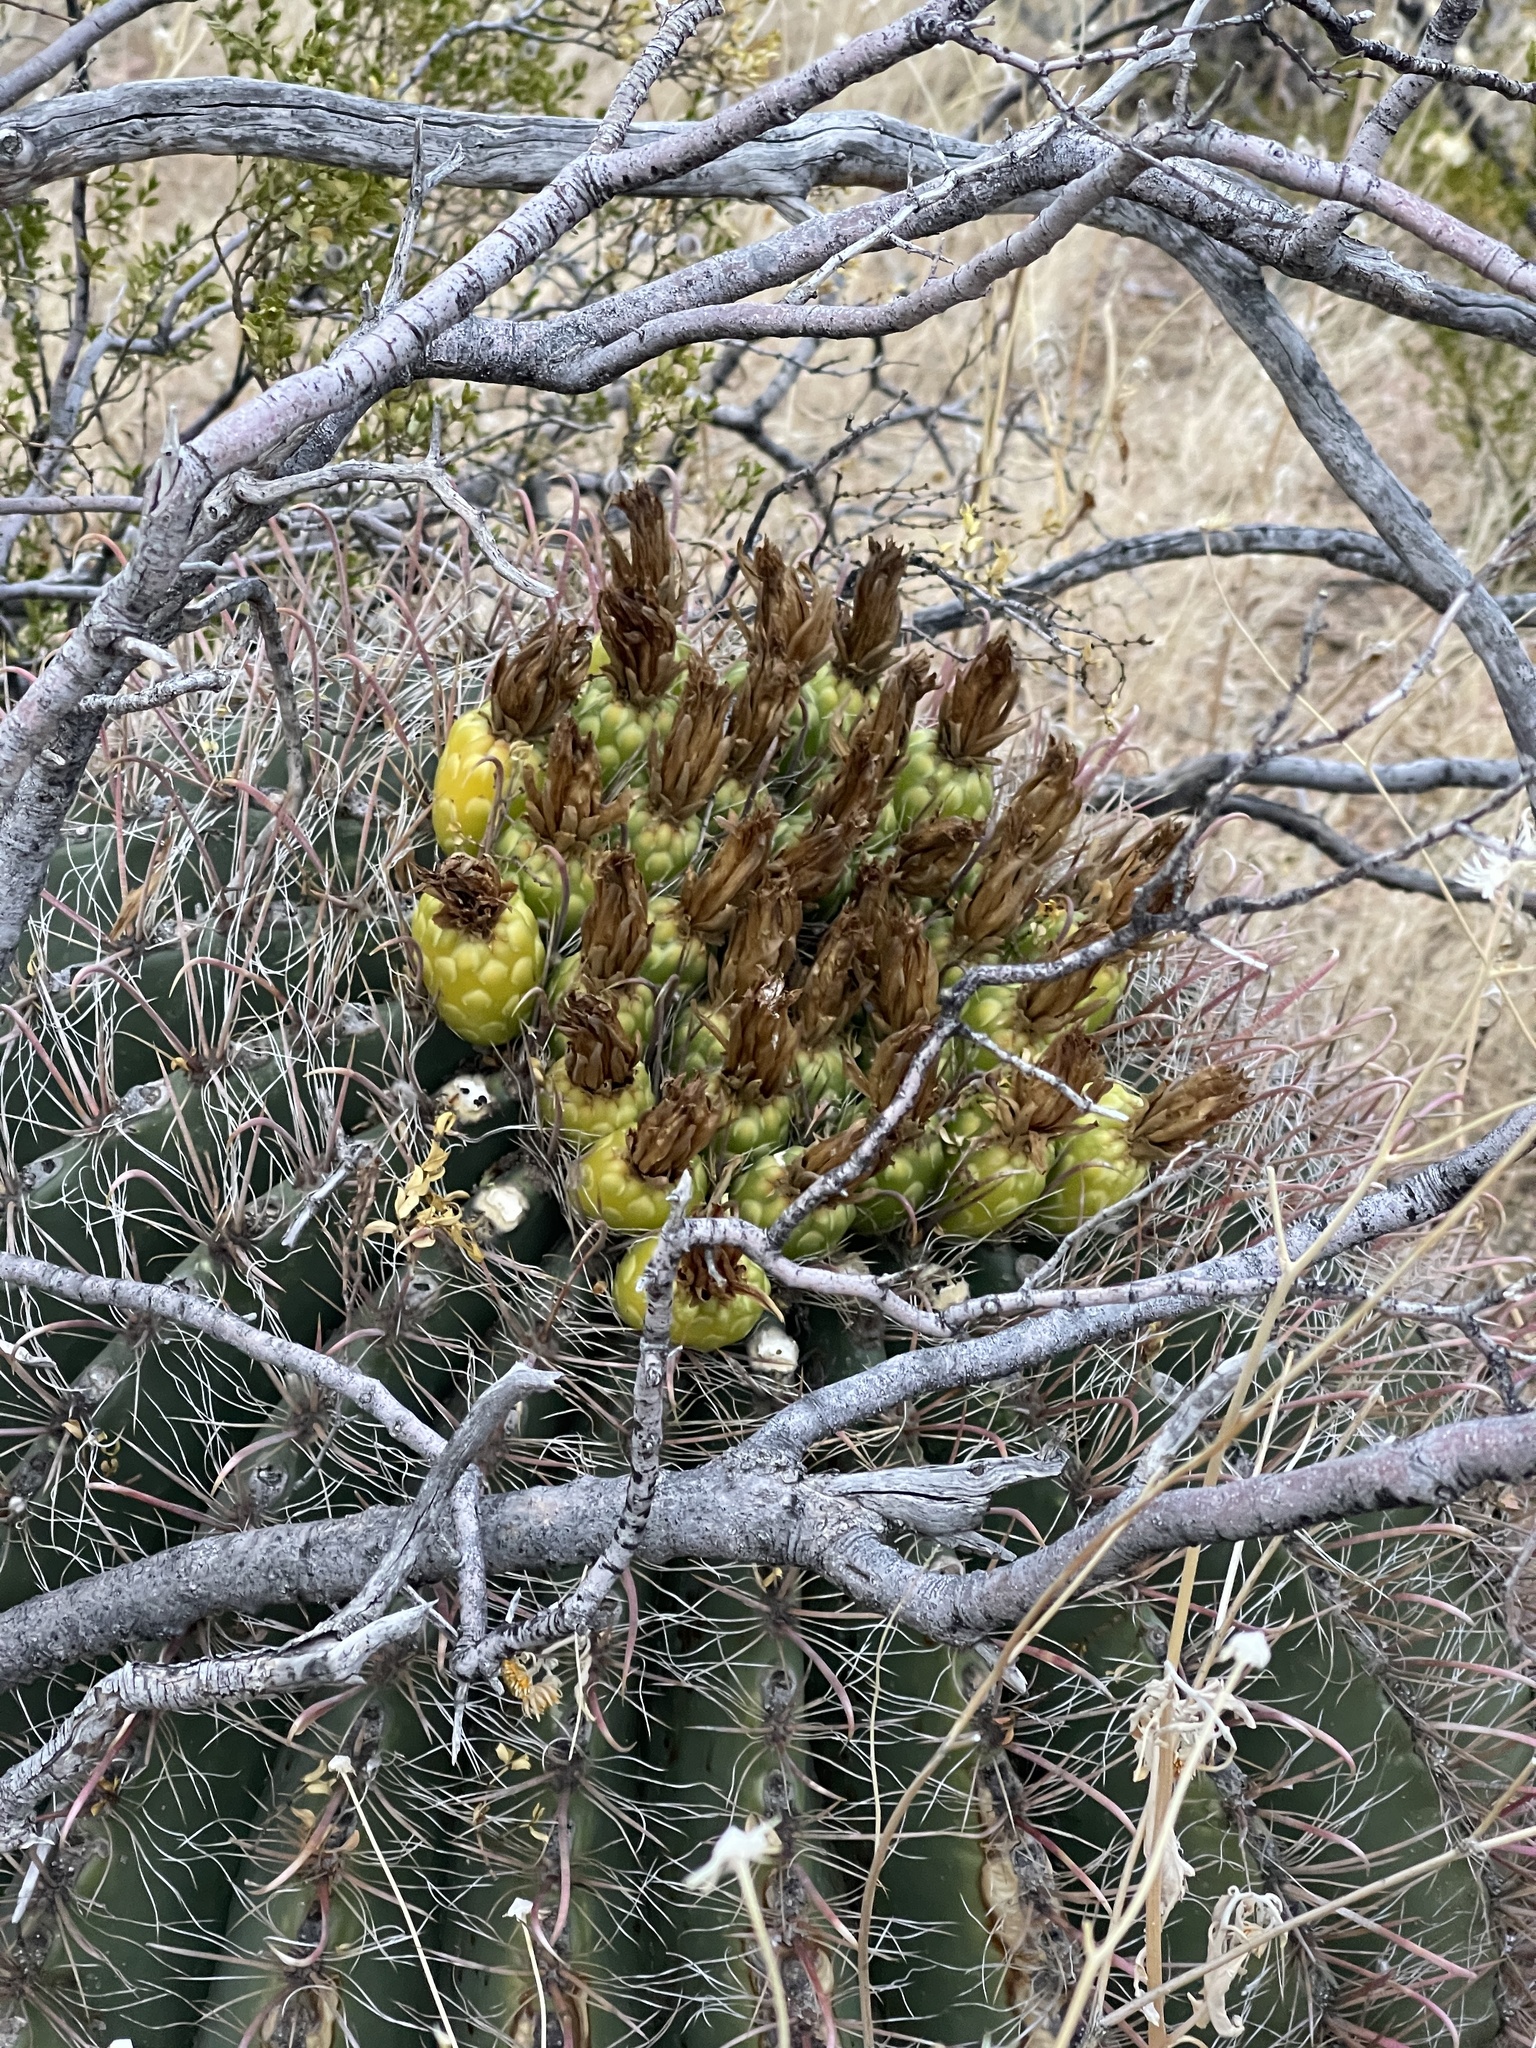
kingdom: Plantae
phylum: Tracheophyta
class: Magnoliopsida
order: Caryophyllales
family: Cactaceae
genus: Ferocactus
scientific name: Ferocactus wislizeni
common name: Candy barrel cactus
